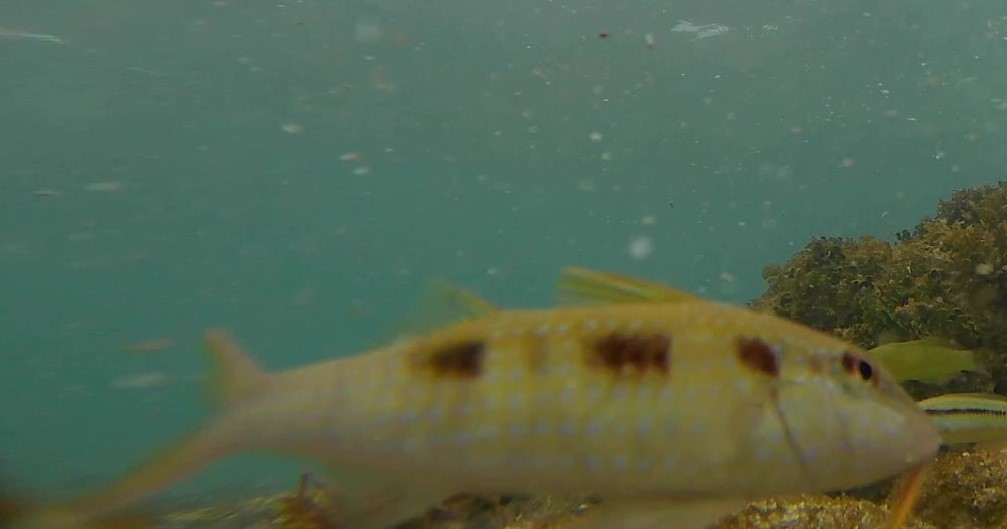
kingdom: Animalia
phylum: Chordata
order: Perciformes
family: Mullidae
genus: Pseudupeneus
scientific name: Pseudupeneus maculatus
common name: Spotted goatfish
